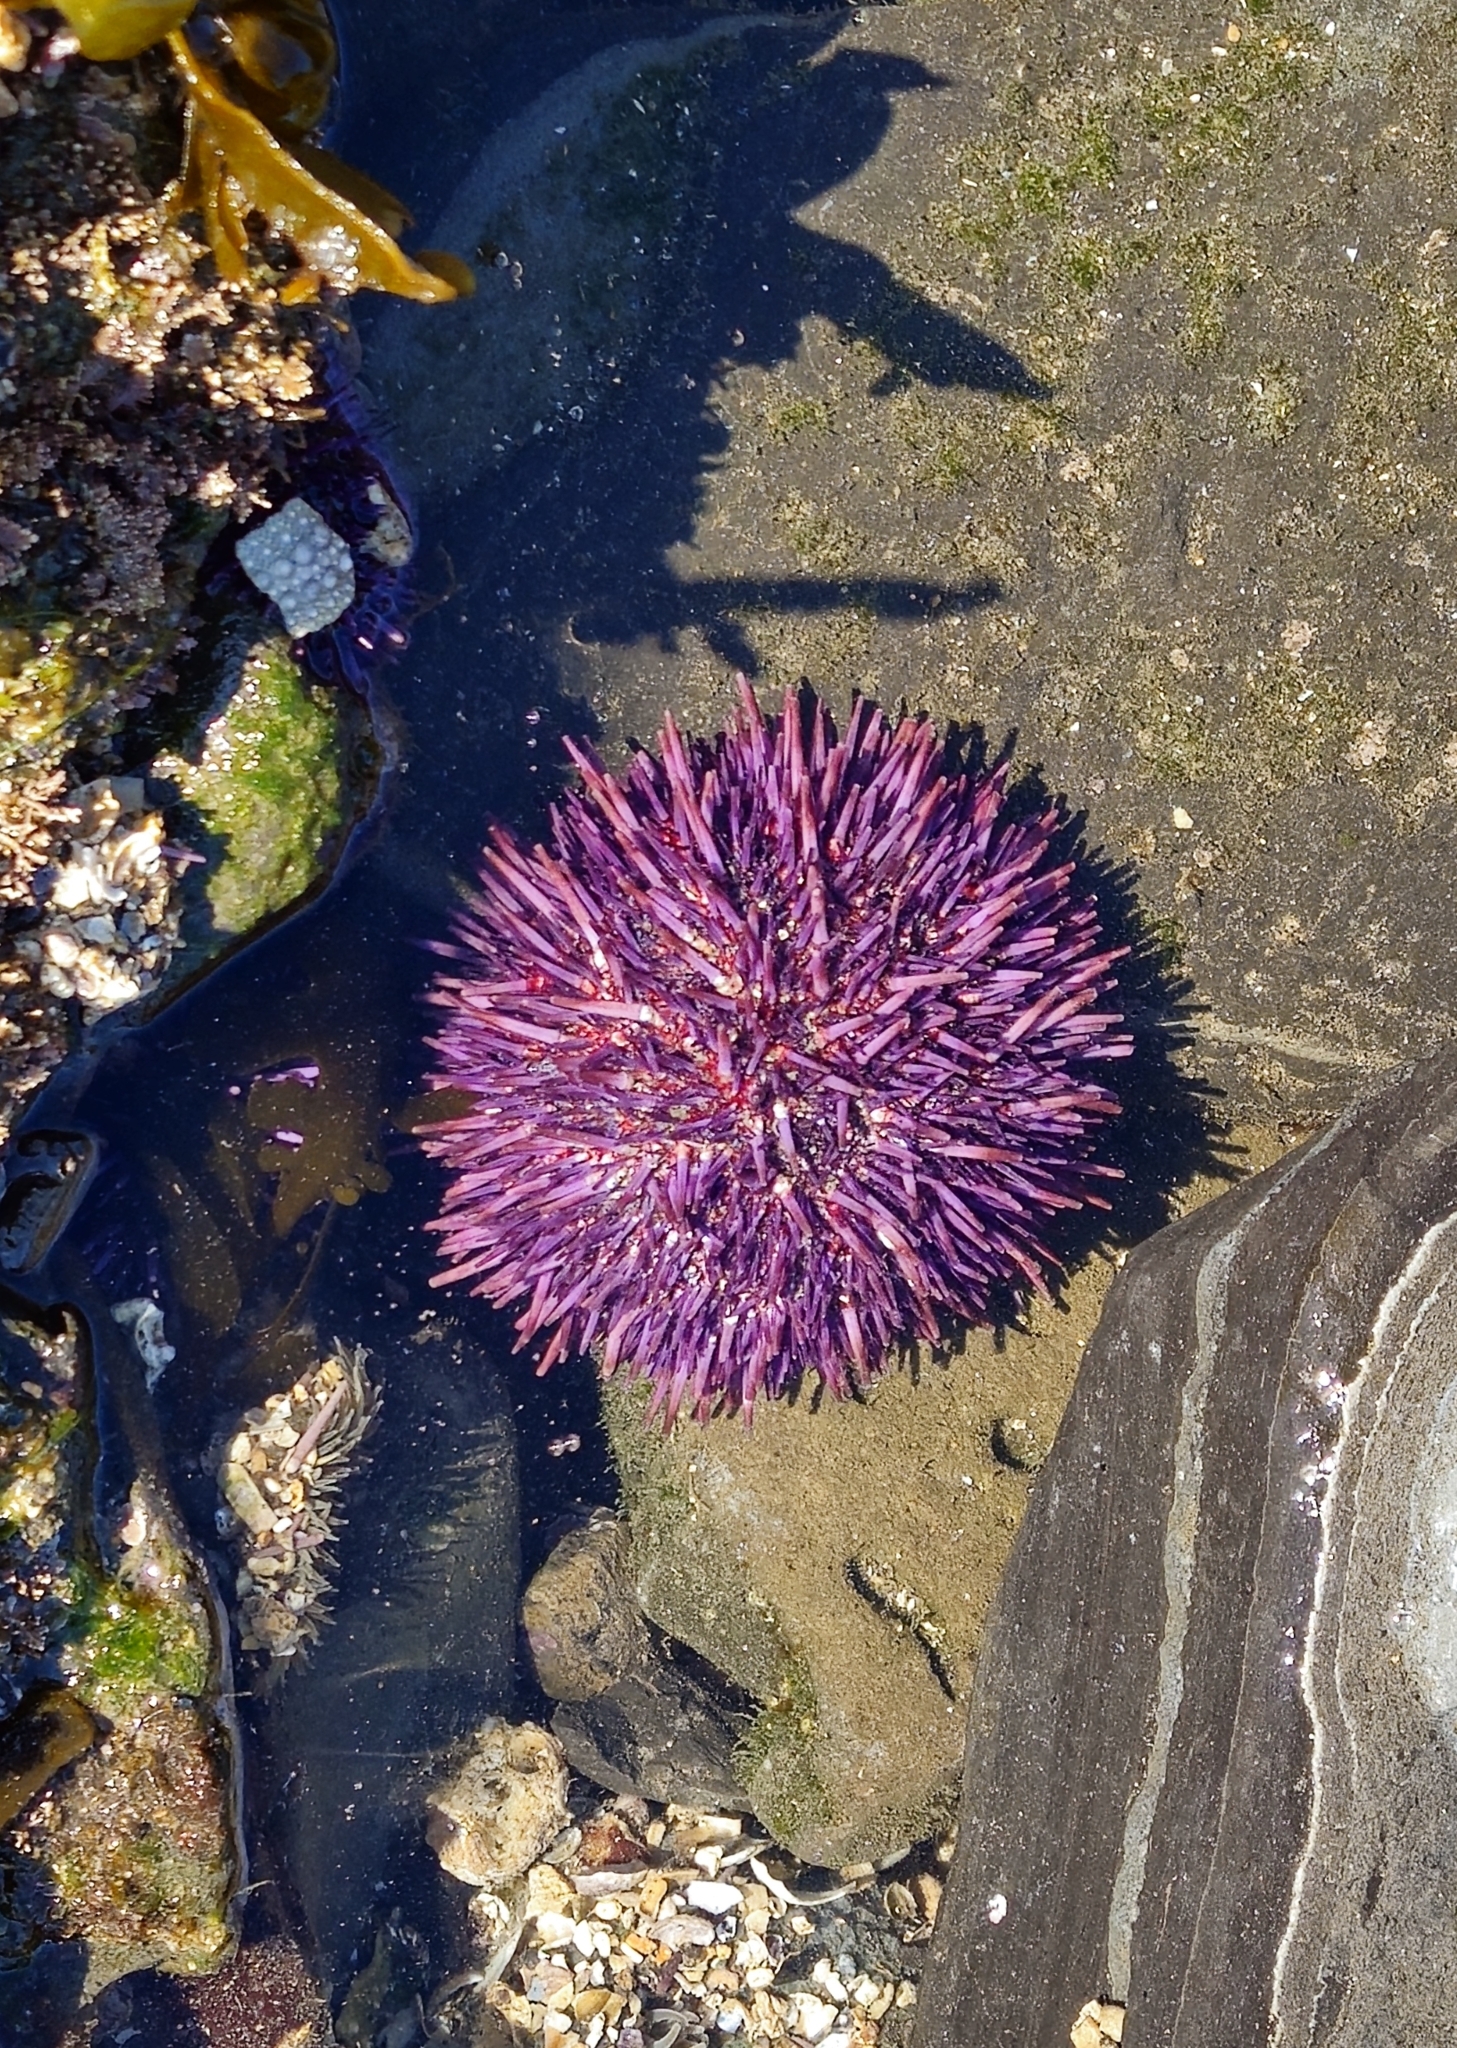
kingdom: Animalia
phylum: Echinodermata
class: Echinoidea
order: Camarodonta
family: Strongylocentrotidae
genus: Strongylocentrotus
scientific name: Strongylocentrotus purpuratus
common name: Purple sea urchin
